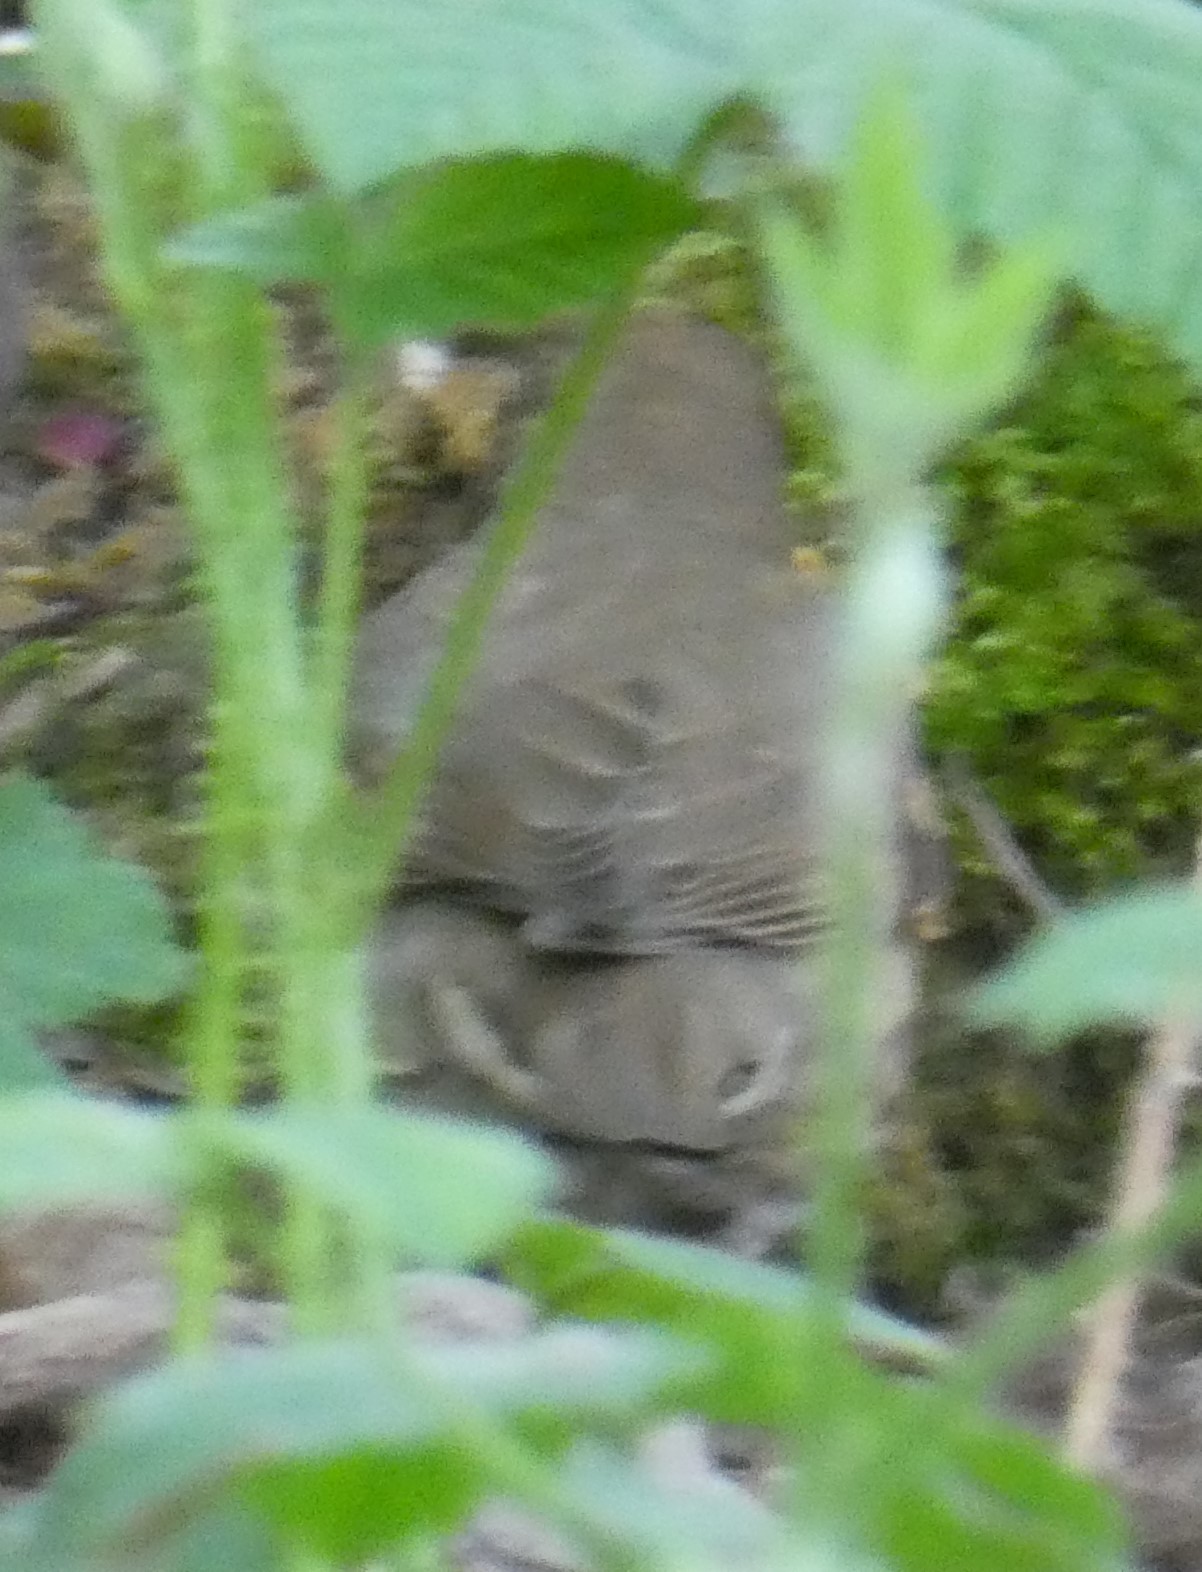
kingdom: Animalia
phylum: Chordata
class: Aves
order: Passeriformes
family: Turdidae
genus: Turdus
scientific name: Turdus philomelos
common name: Song thrush
